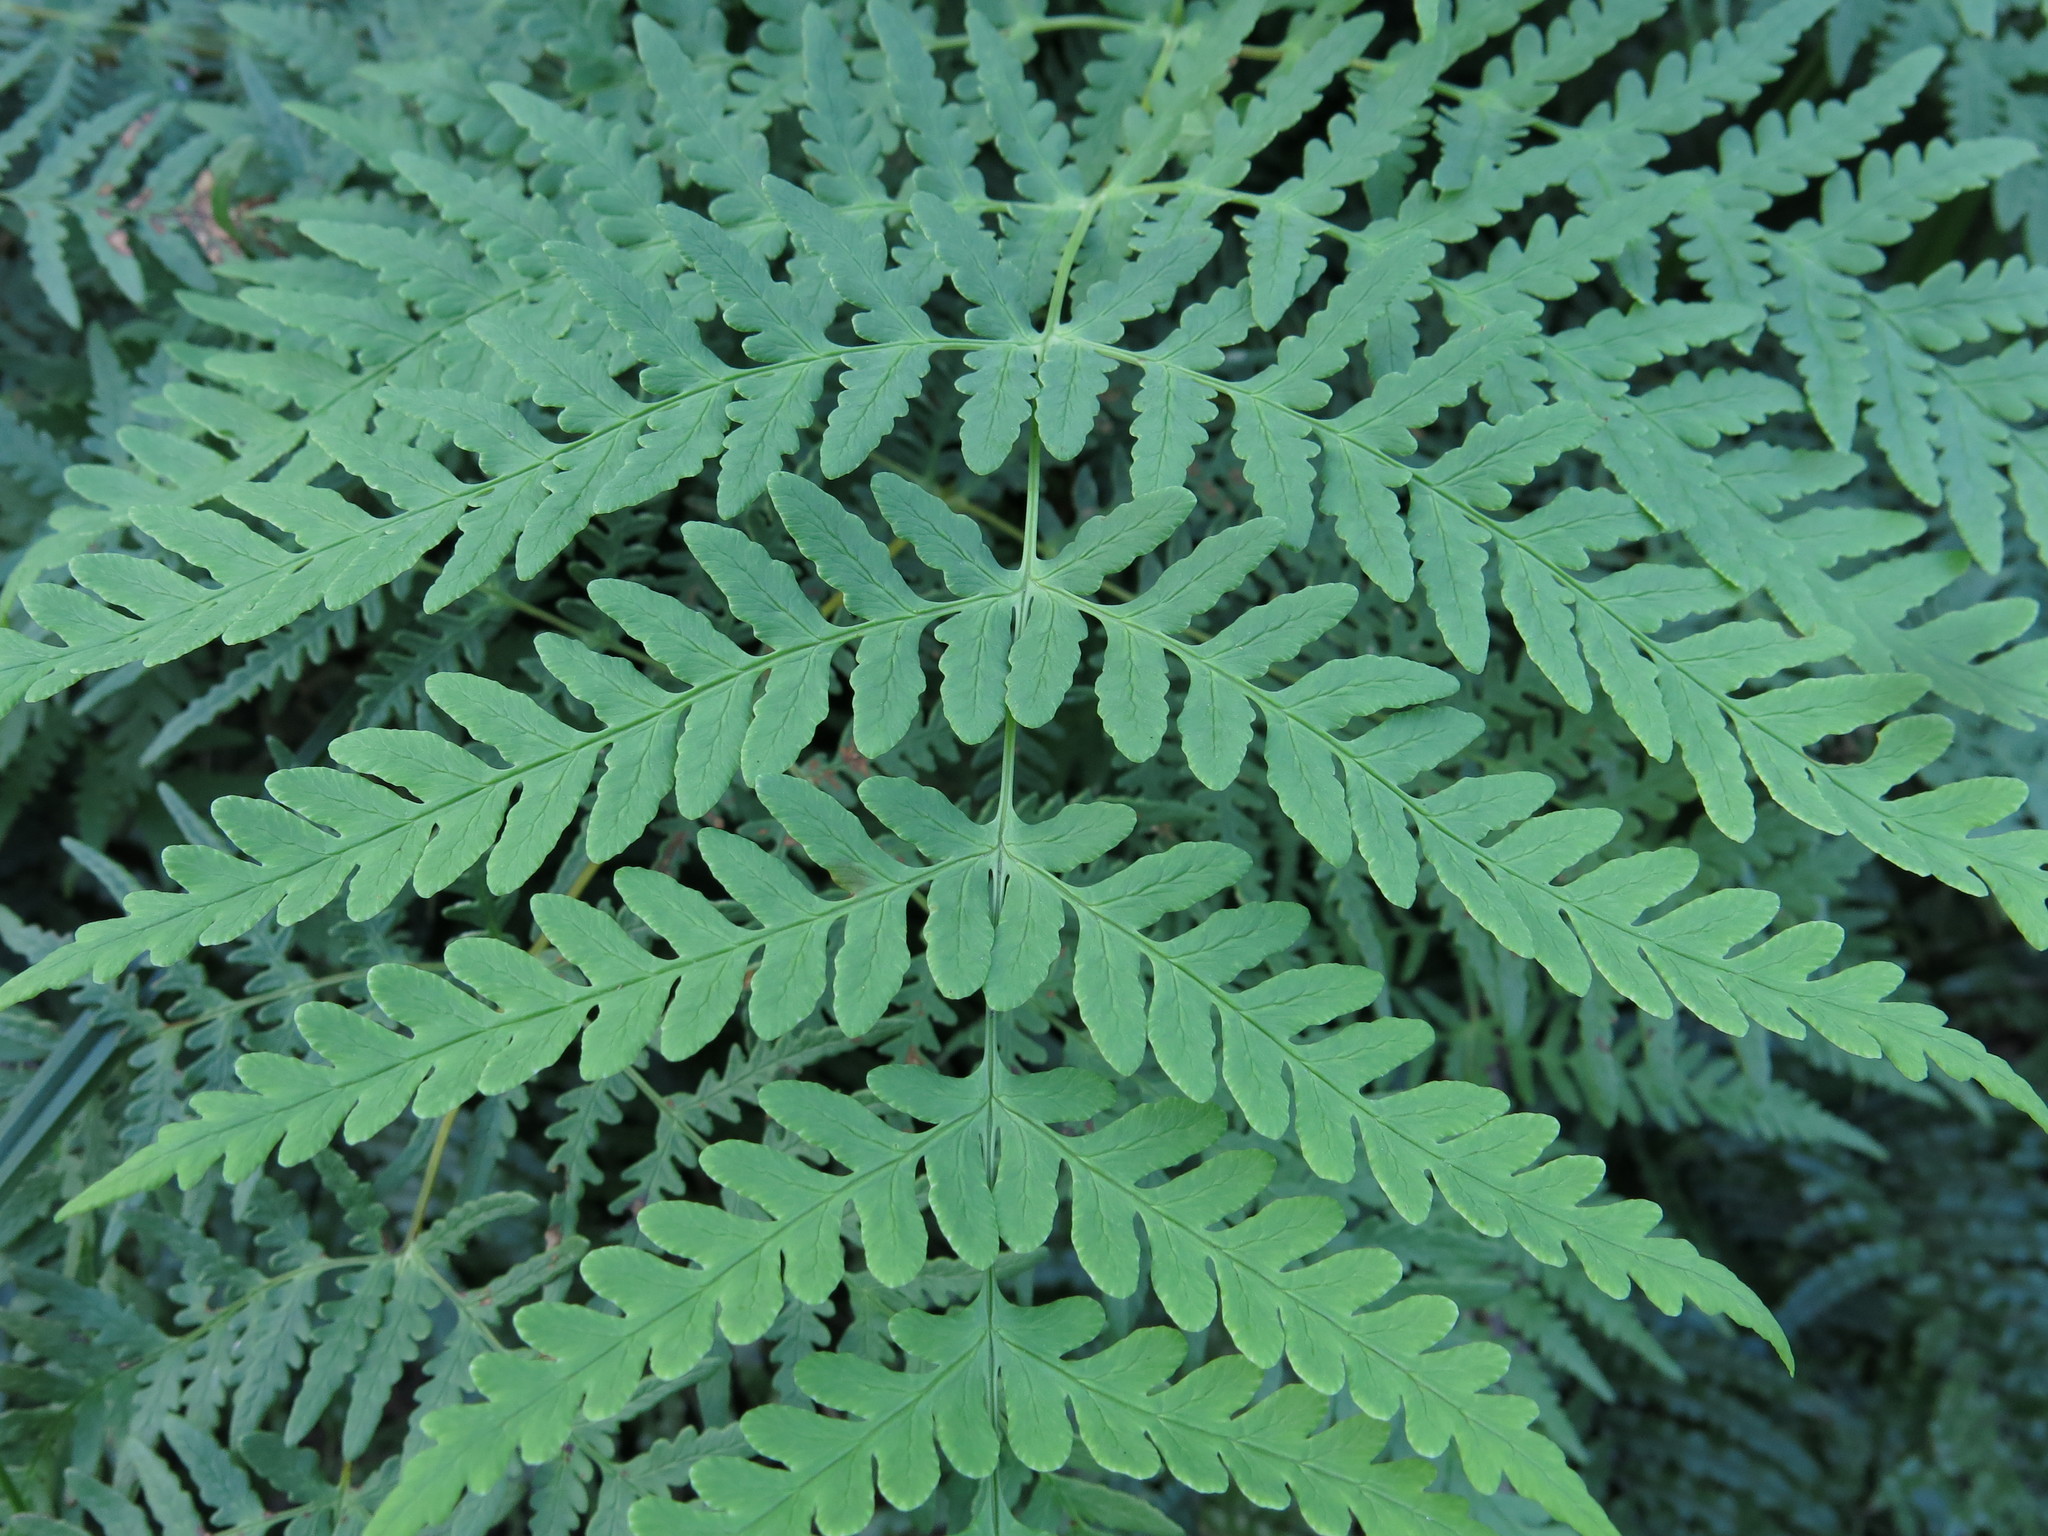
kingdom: Plantae
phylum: Tracheophyta
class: Polypodiopsida
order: Polypodiales
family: Dennstaedtiaceae
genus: Histiopteris
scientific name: Histiopteris incisa
